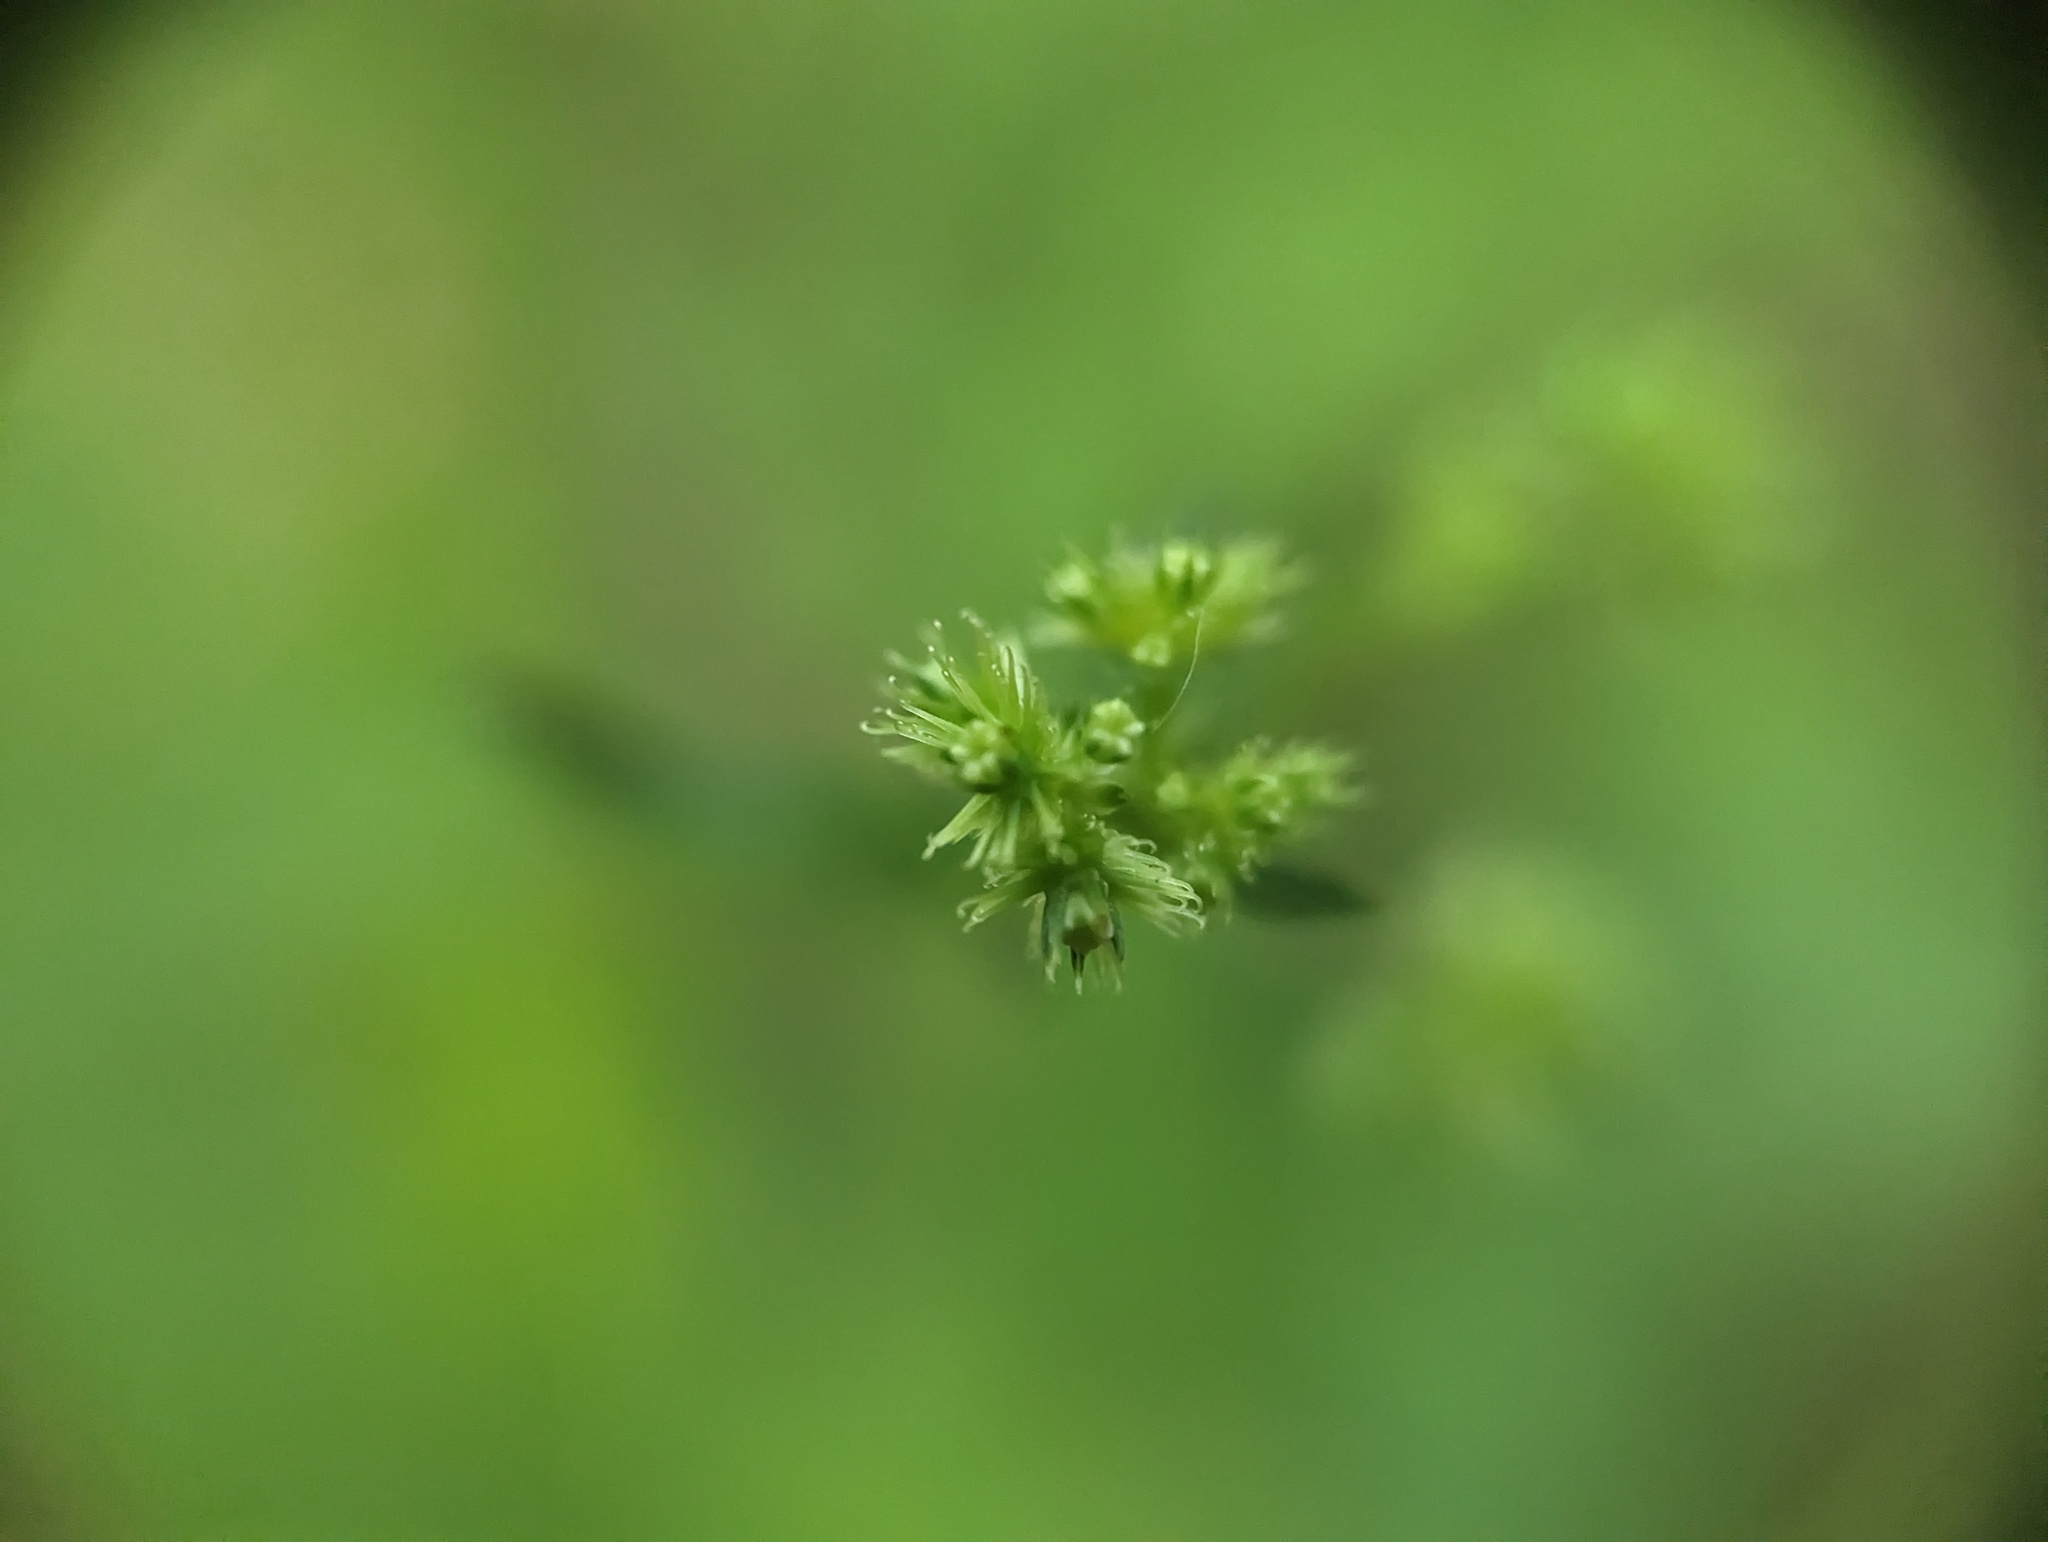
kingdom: Plantae
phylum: Tracheophyta
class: Magnoliopsida
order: Apiales
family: Apiaceae
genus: Sanicula
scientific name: Sanicula canadensis
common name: Canada sanicle
